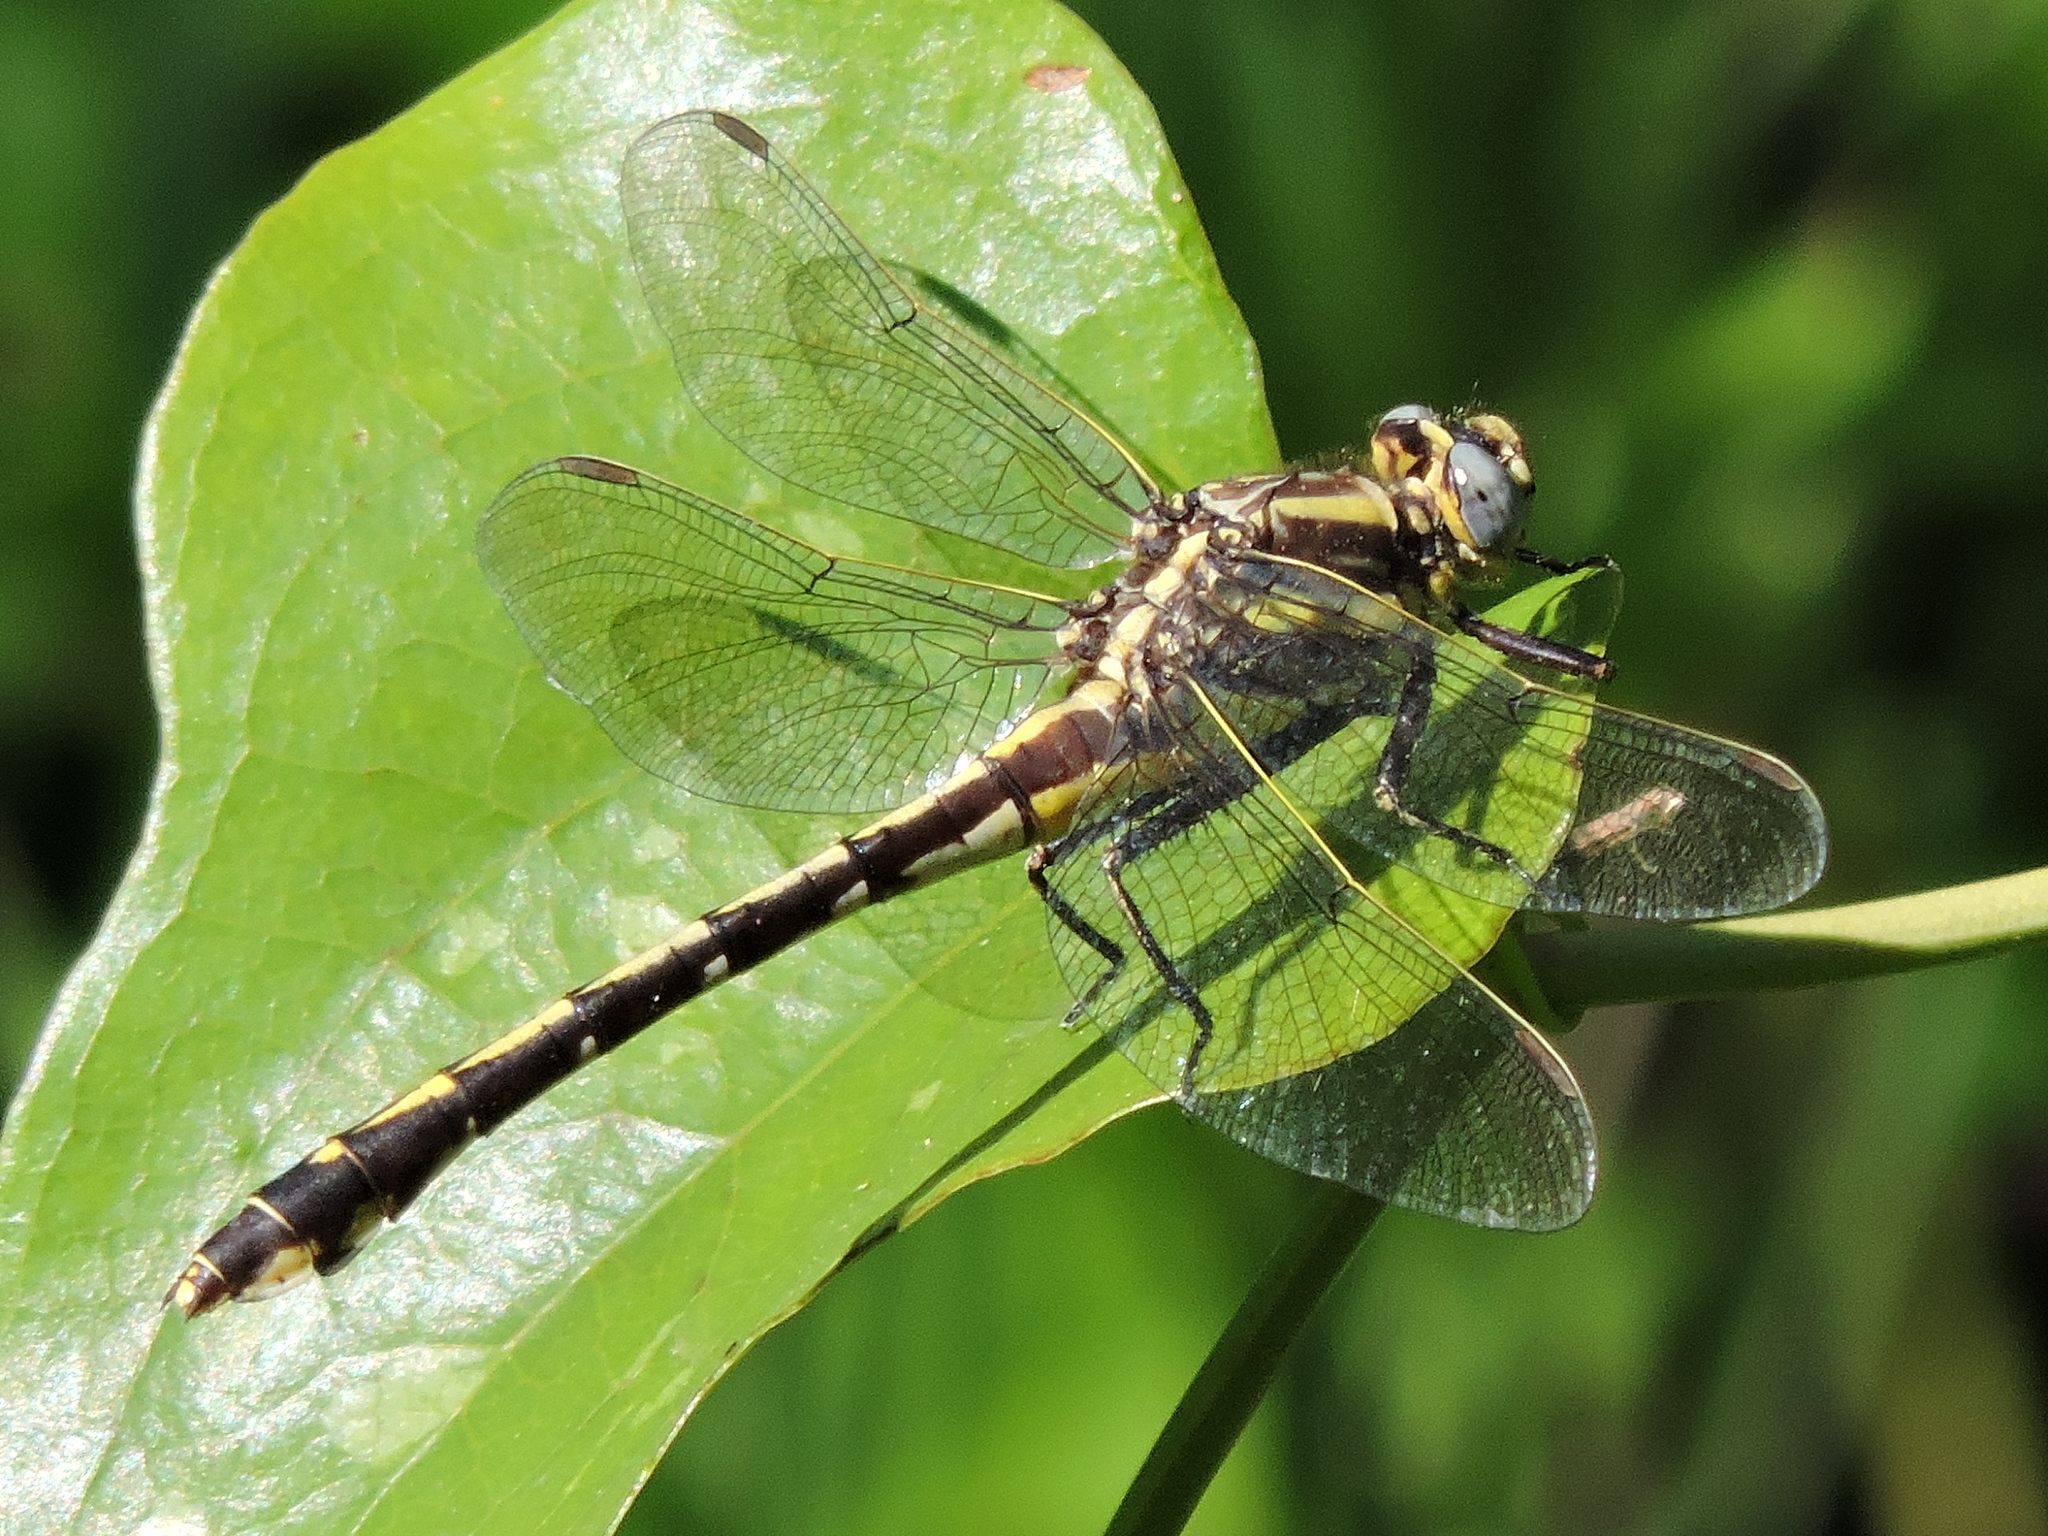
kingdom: Animalia
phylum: Arthropoda
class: Insecta
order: Odonata
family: Gomphidae
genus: Gomphurus
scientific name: Gomphurus externus
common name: Plains clubtail
